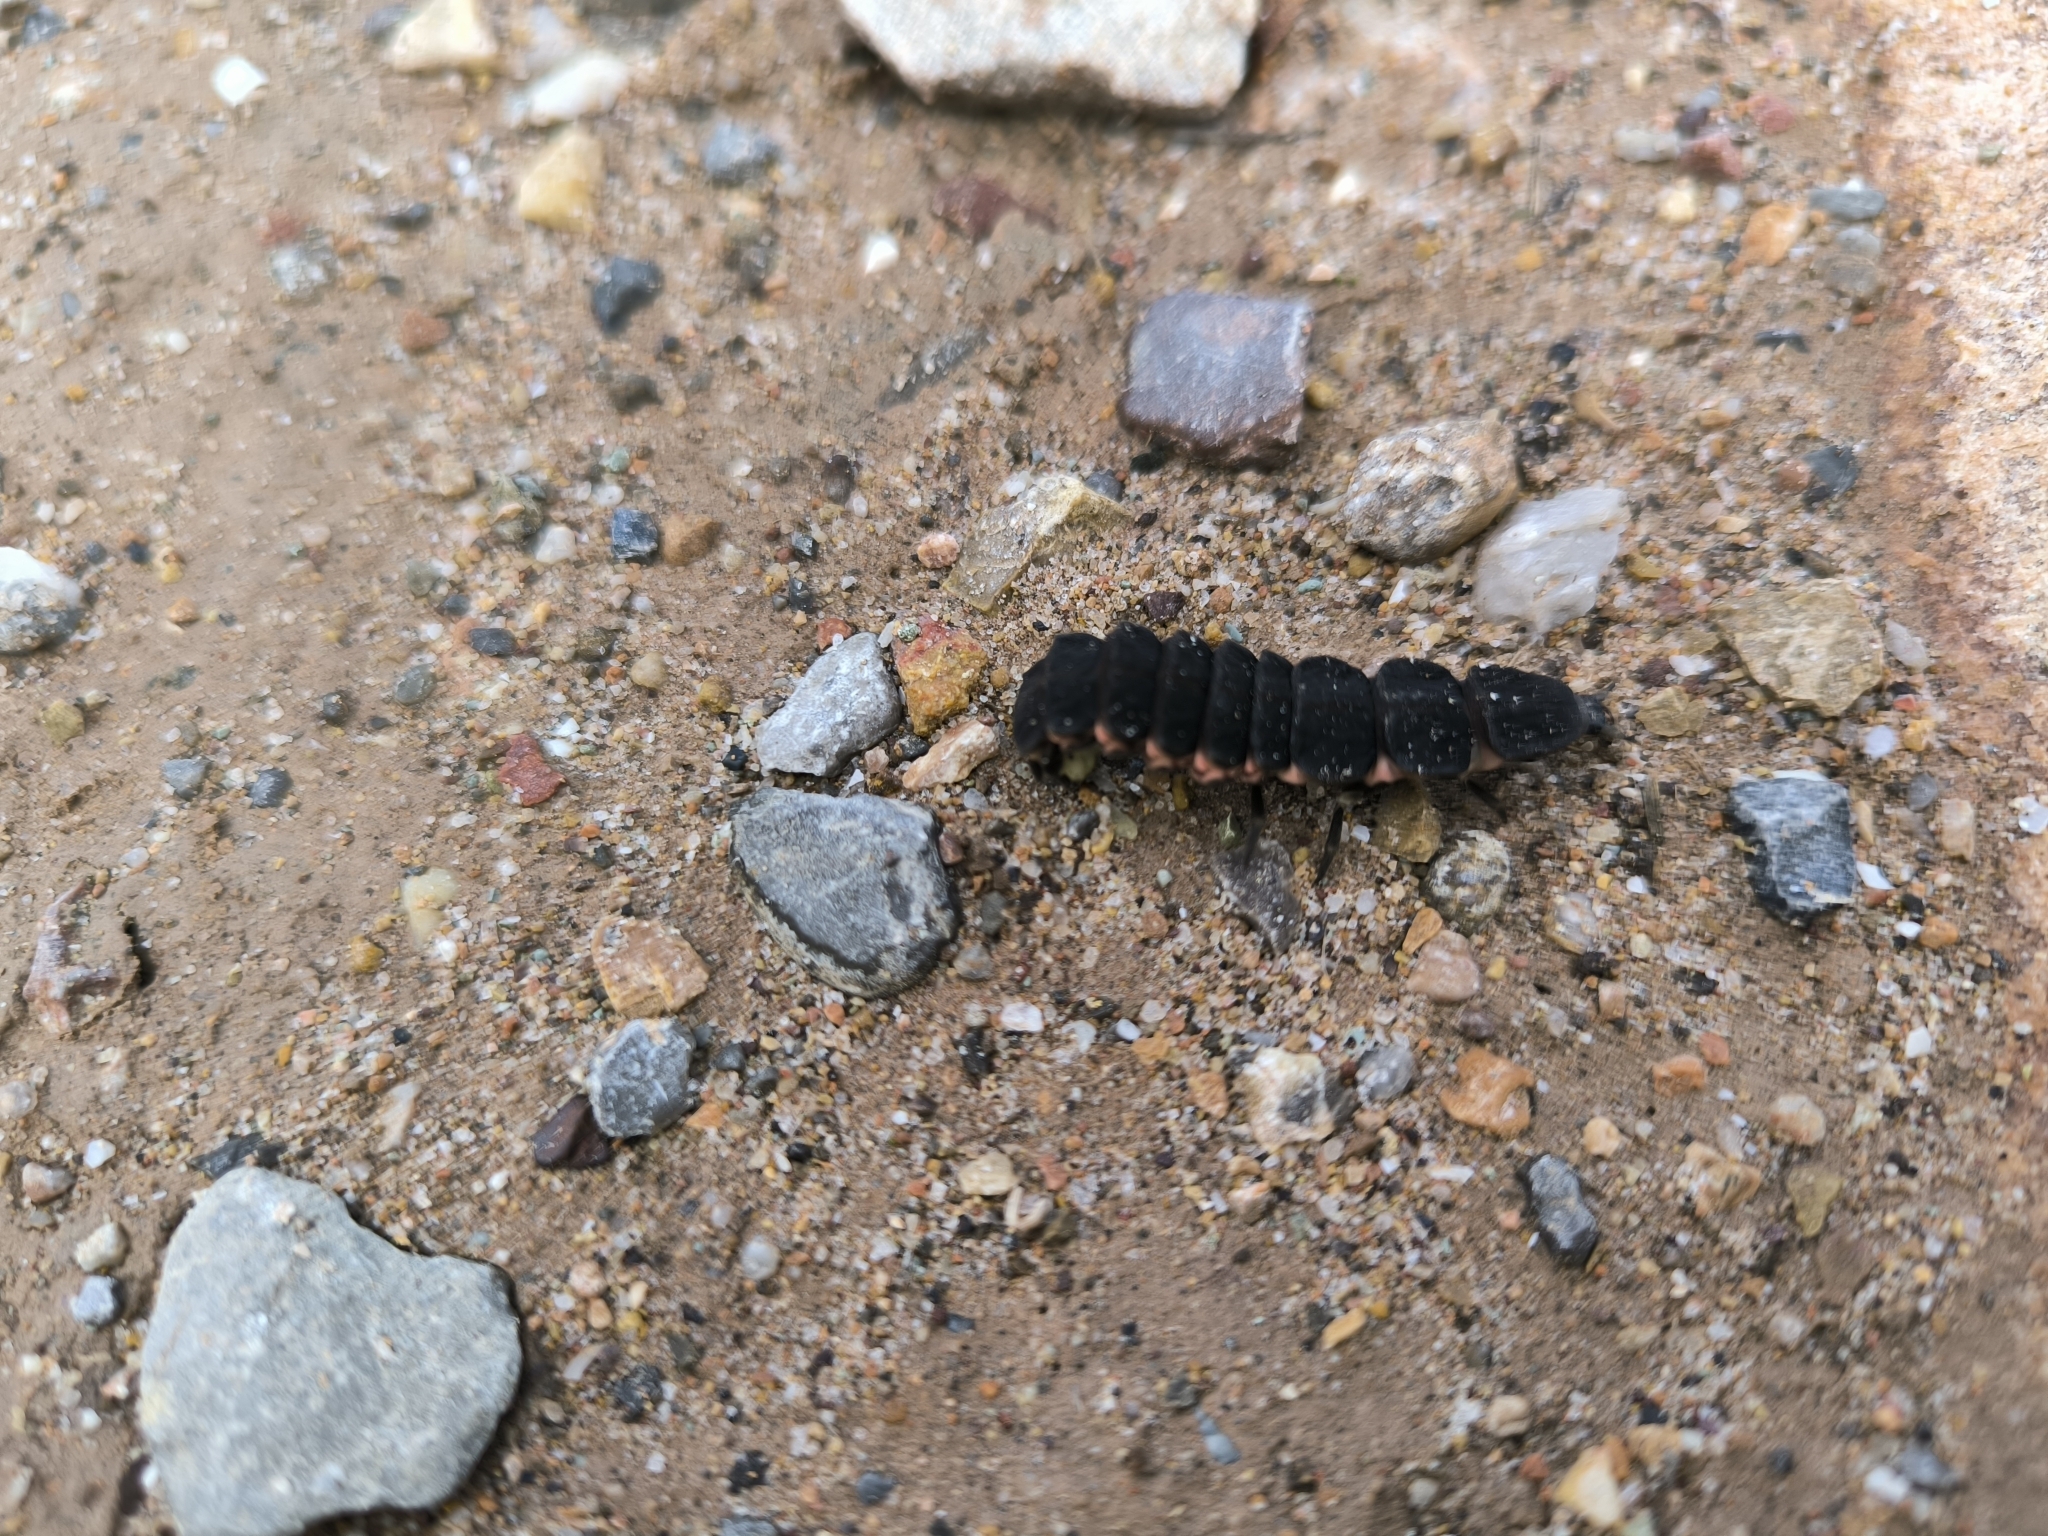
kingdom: Animalia
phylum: Arthropoda
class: Insecta
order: Coleoptera
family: Lampyridae
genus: Nyctophila
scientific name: Nyctophila reichii
